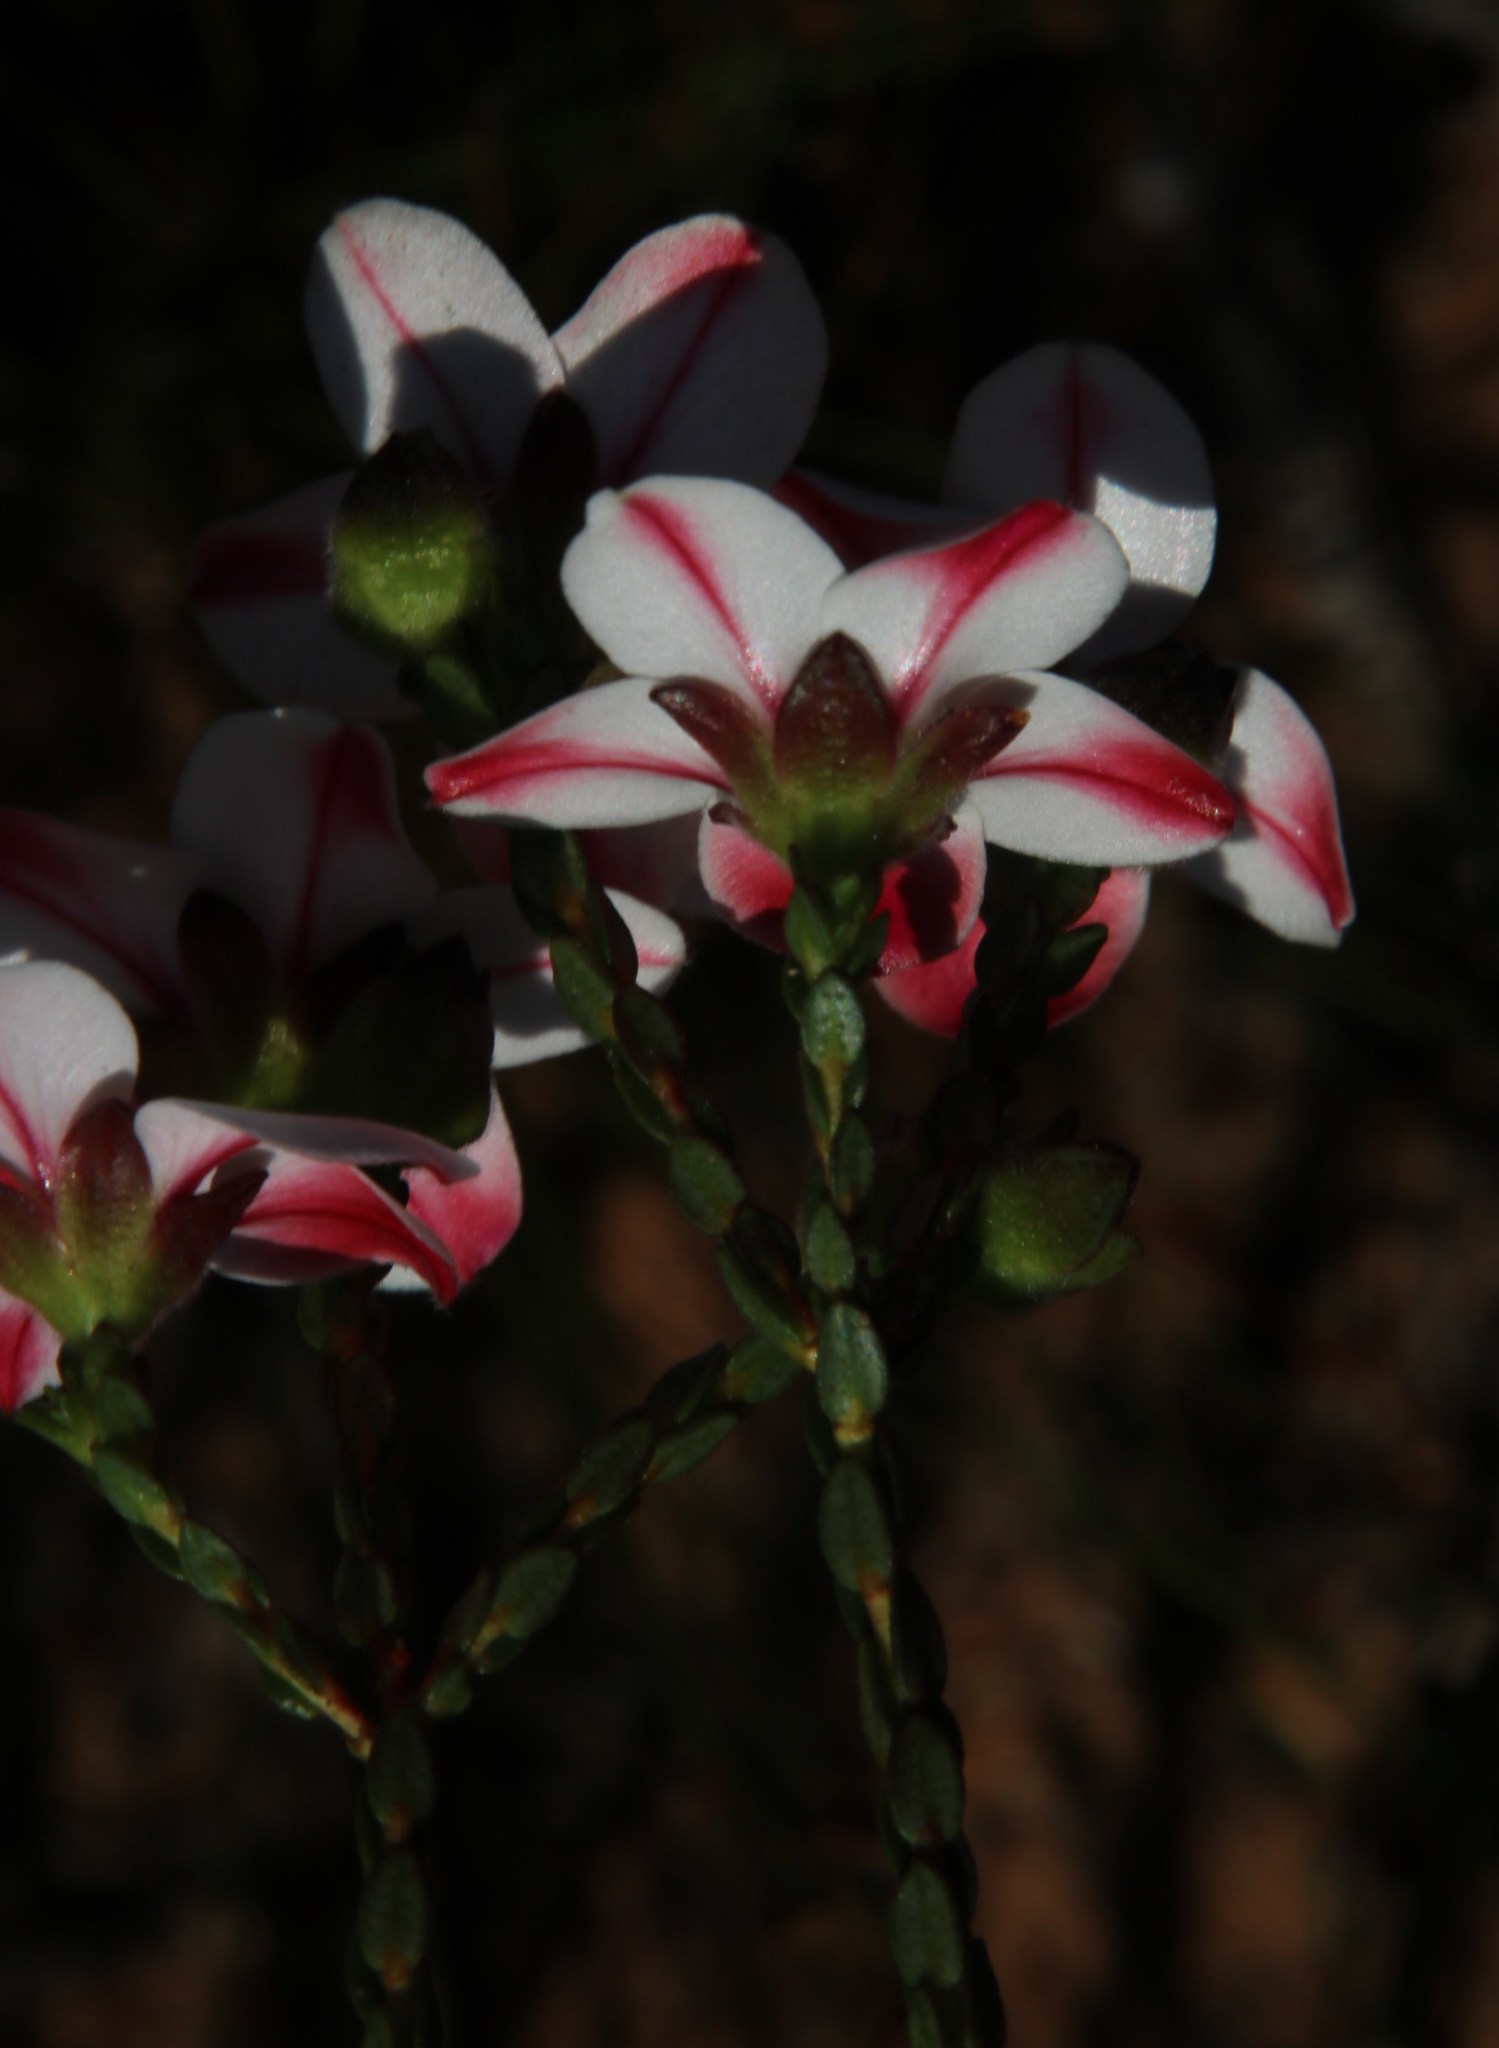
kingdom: Plantae
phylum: Tracheophyta
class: Magnoliopsida
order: Sapindales
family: Rutaceae
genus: Adenandra
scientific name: Adenandra villosa
